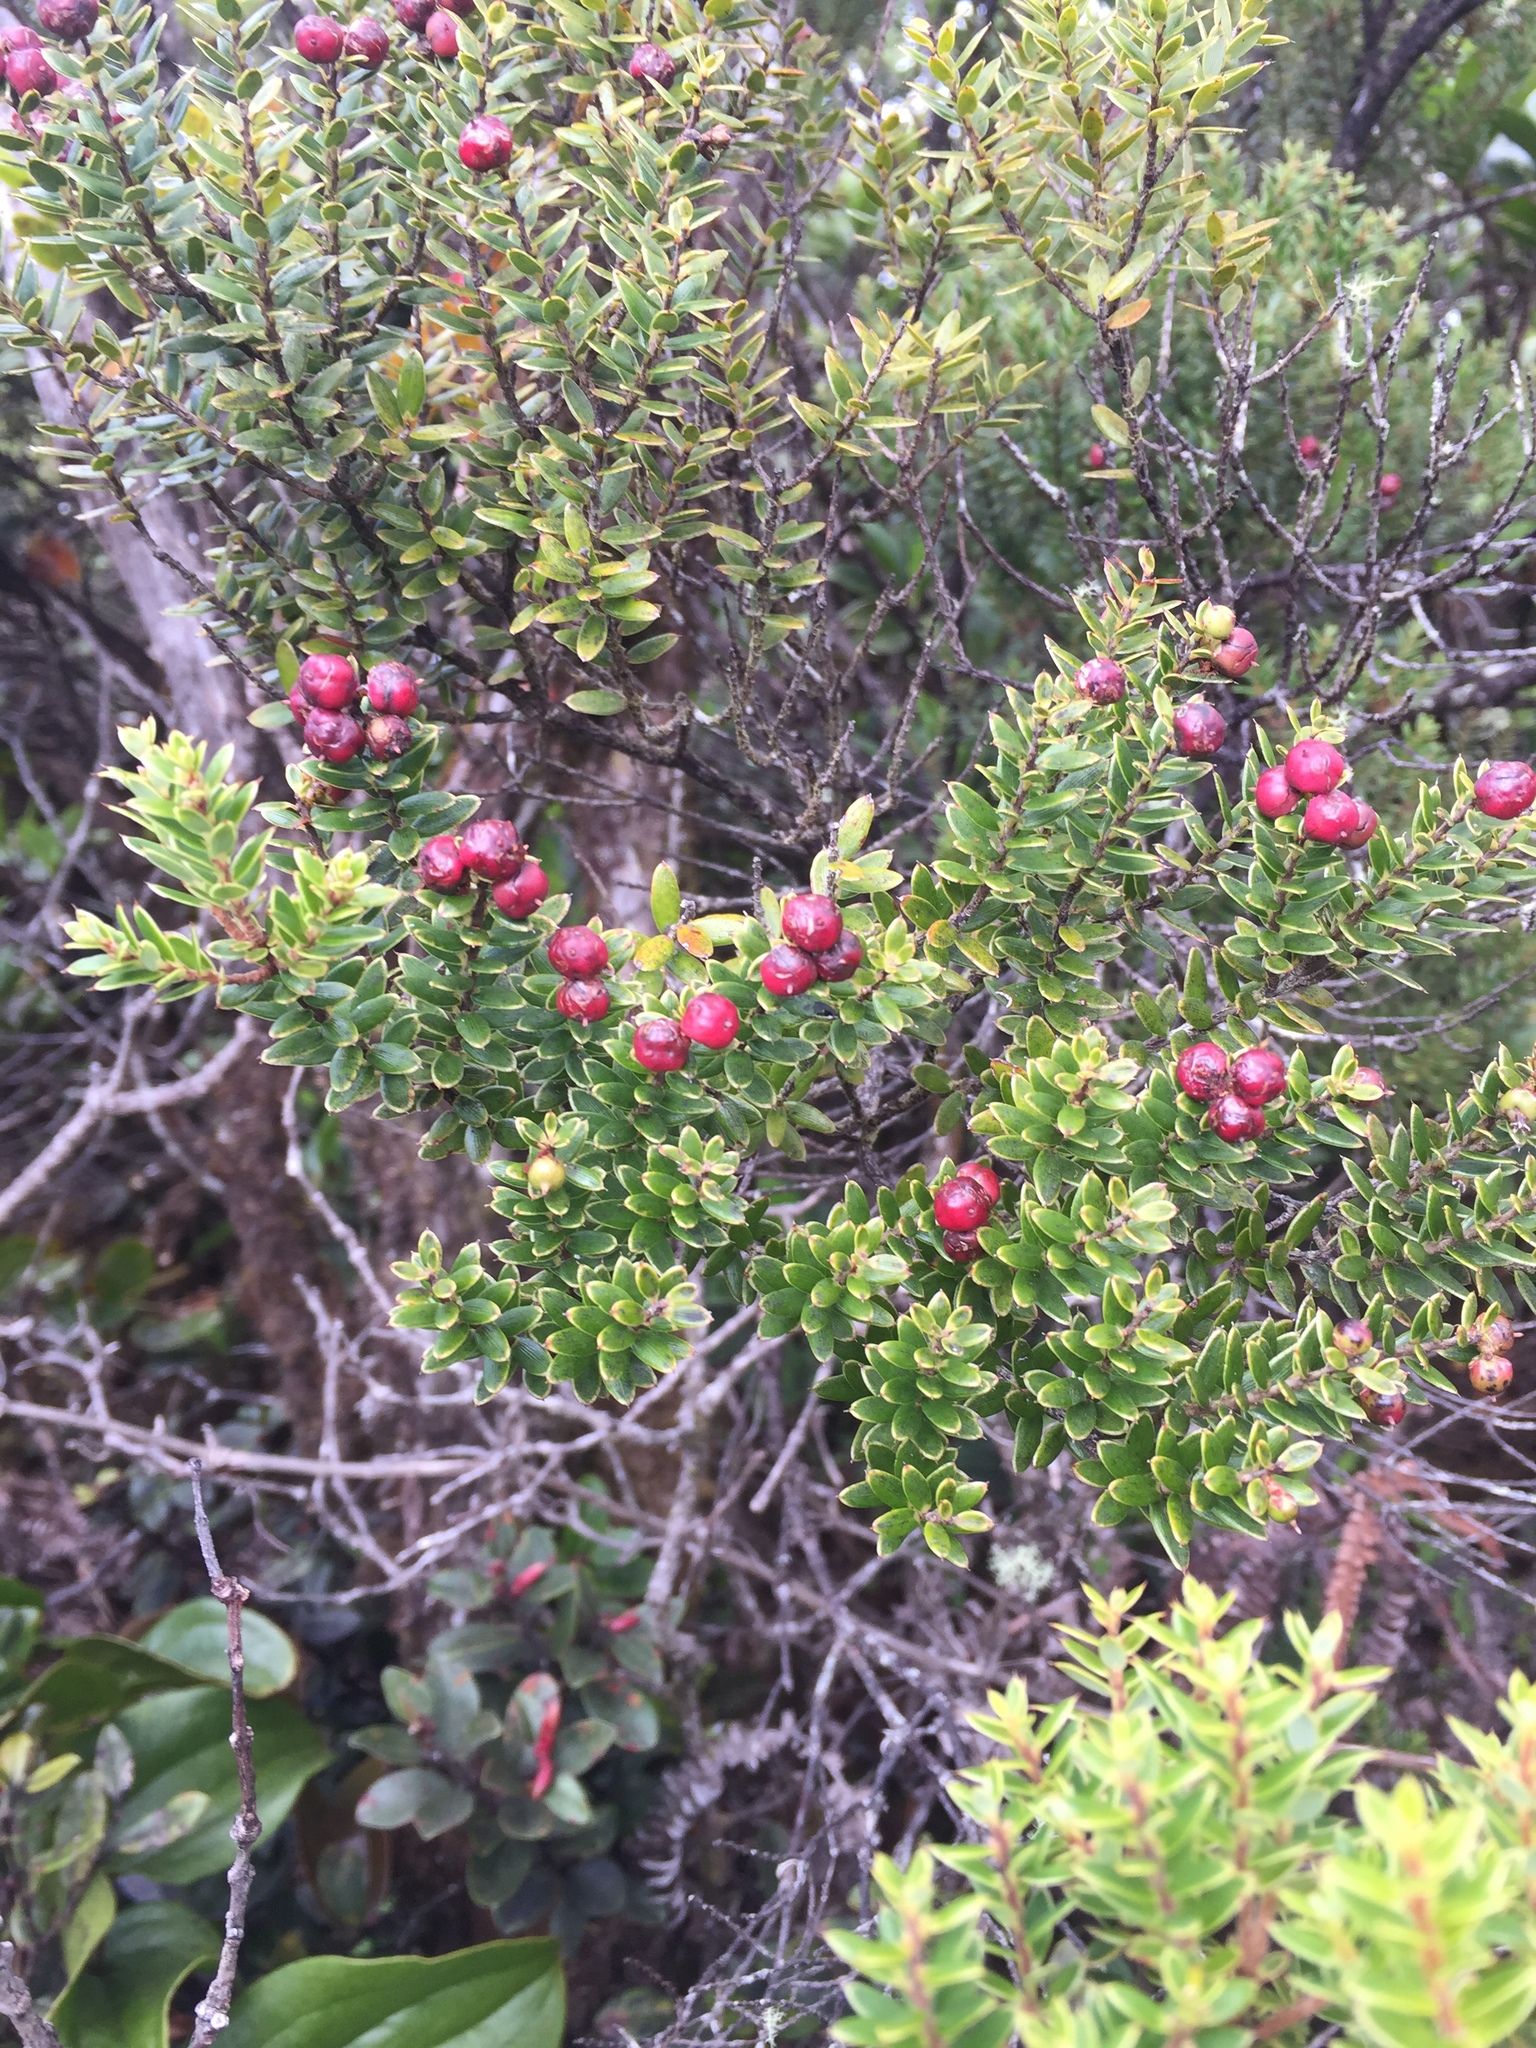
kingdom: Plantae
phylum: Tracheophyta
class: Magnoliopsida
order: Ericales
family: Ericaceae
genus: Leptecophylla
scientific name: Leptecophylla tameiameiae
